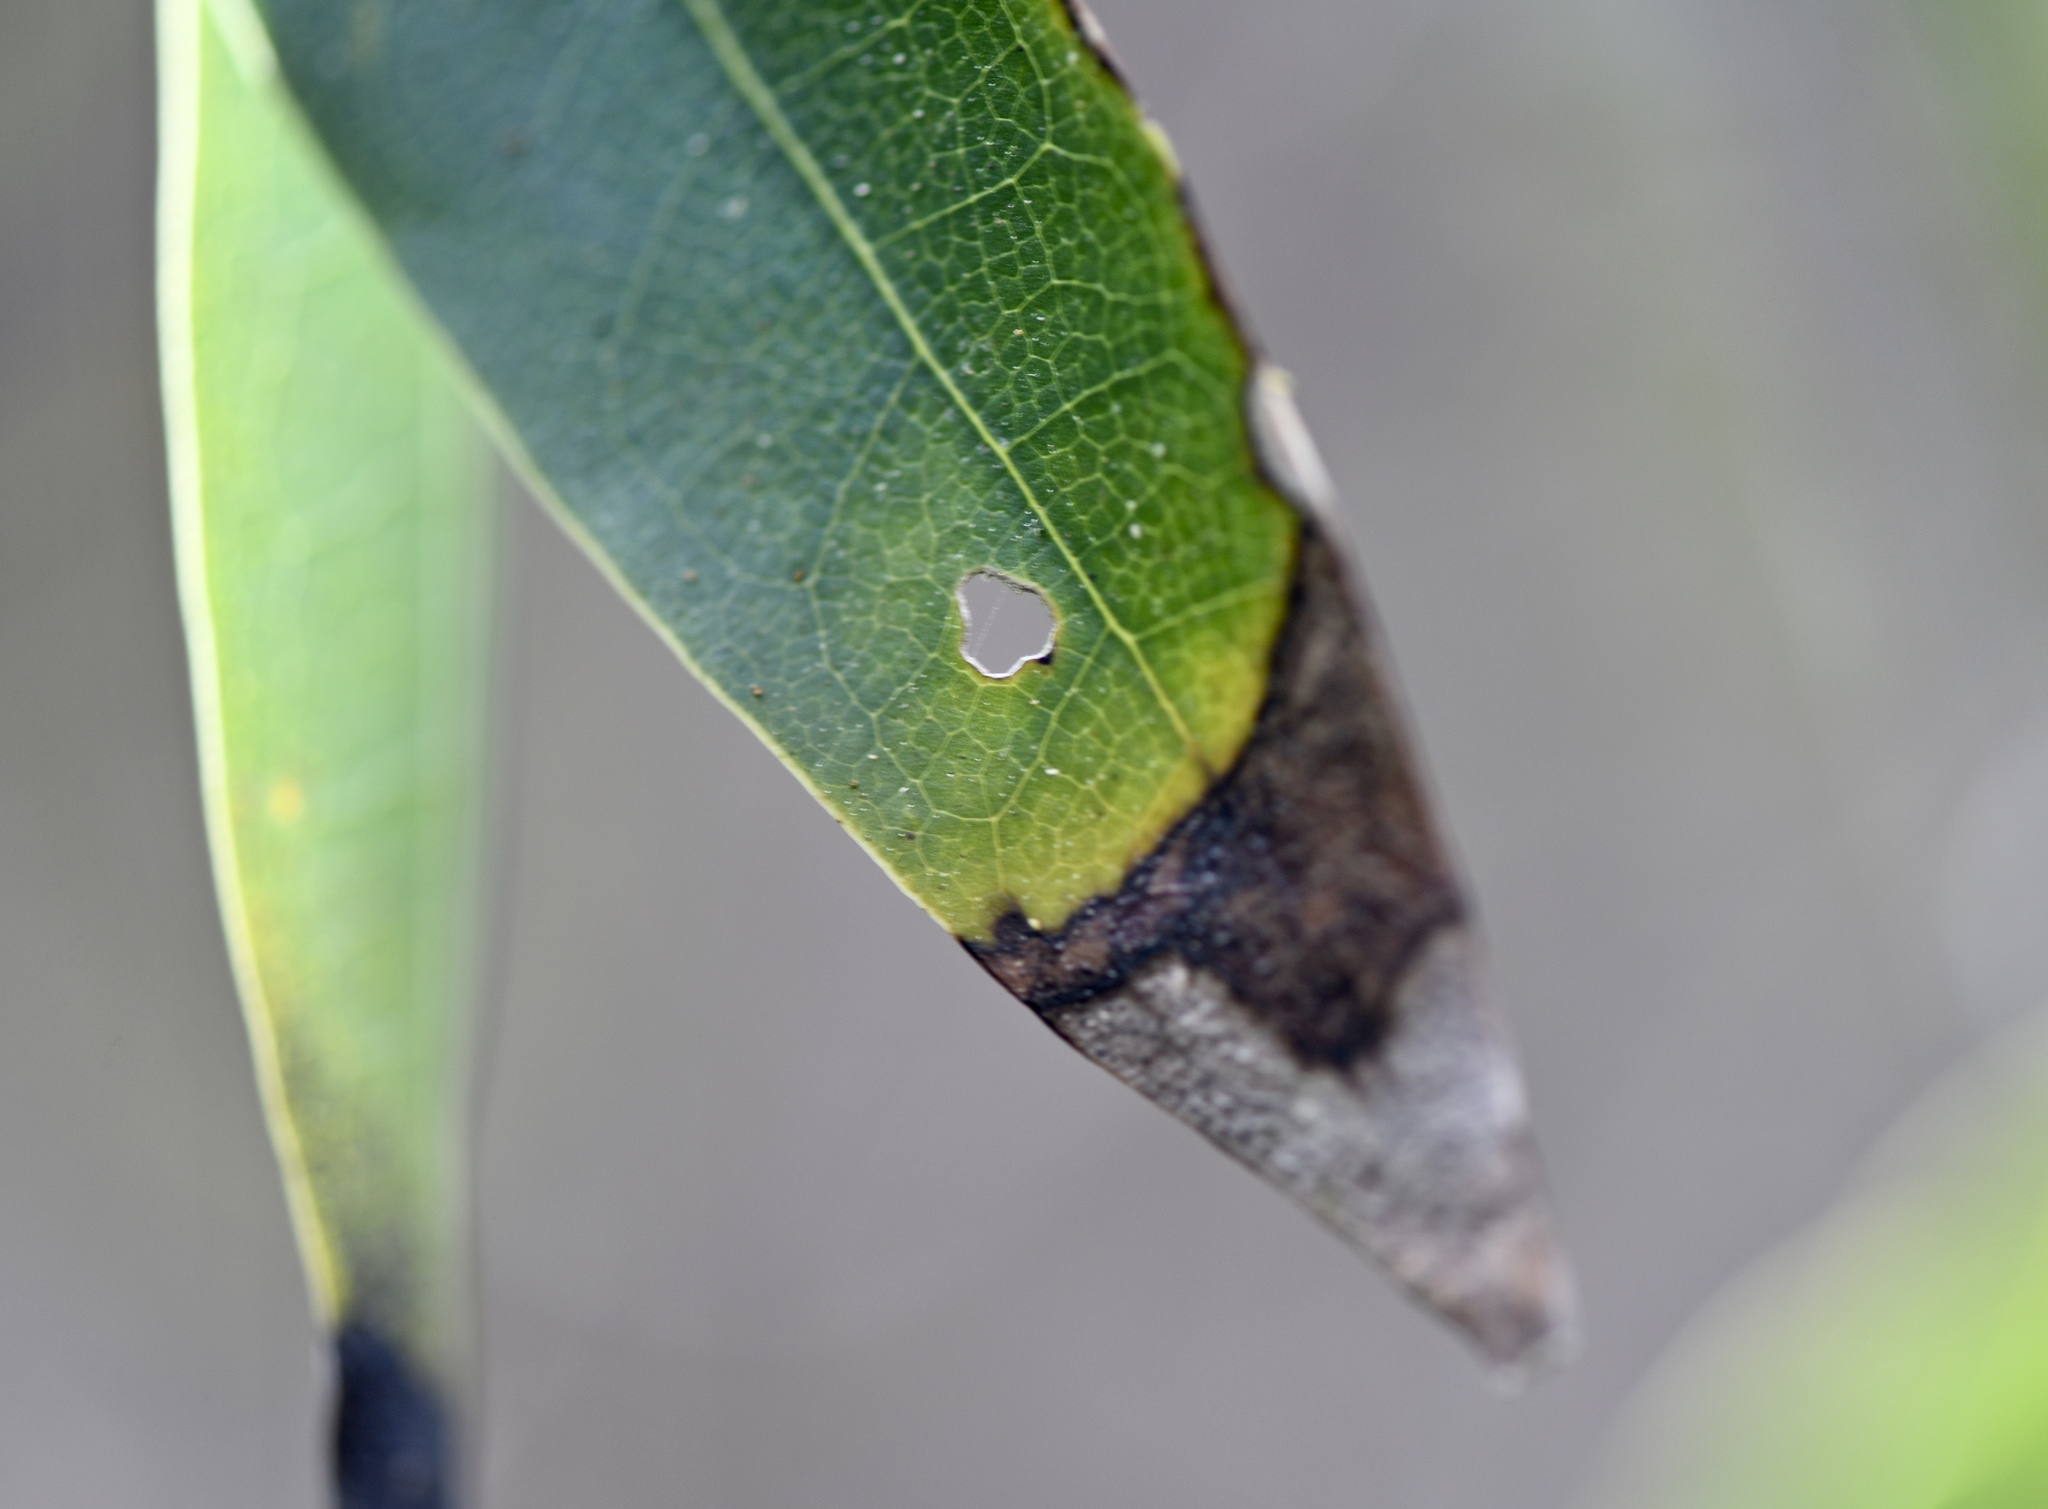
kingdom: Plantae
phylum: Tracheophyta
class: Magnoliopsida
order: Laurales
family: Lauraceae
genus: Umbellularia
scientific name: Umbellularia californica
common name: California bay
